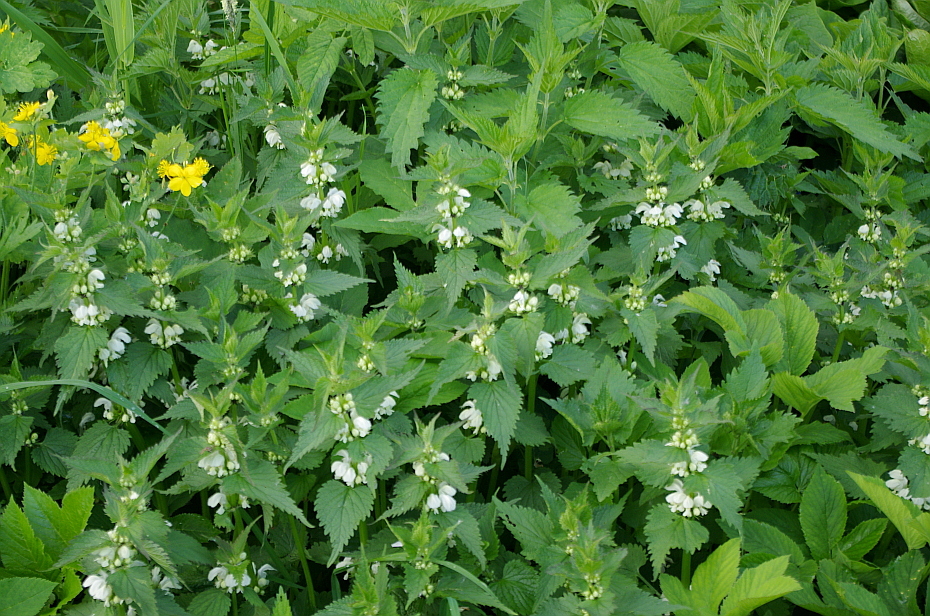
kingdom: Plantae
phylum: Tracheophyta
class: Magnoliopsida
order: Lamiales
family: Lamiaceae
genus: Lamium
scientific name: Lamium album
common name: White dead-nettle
